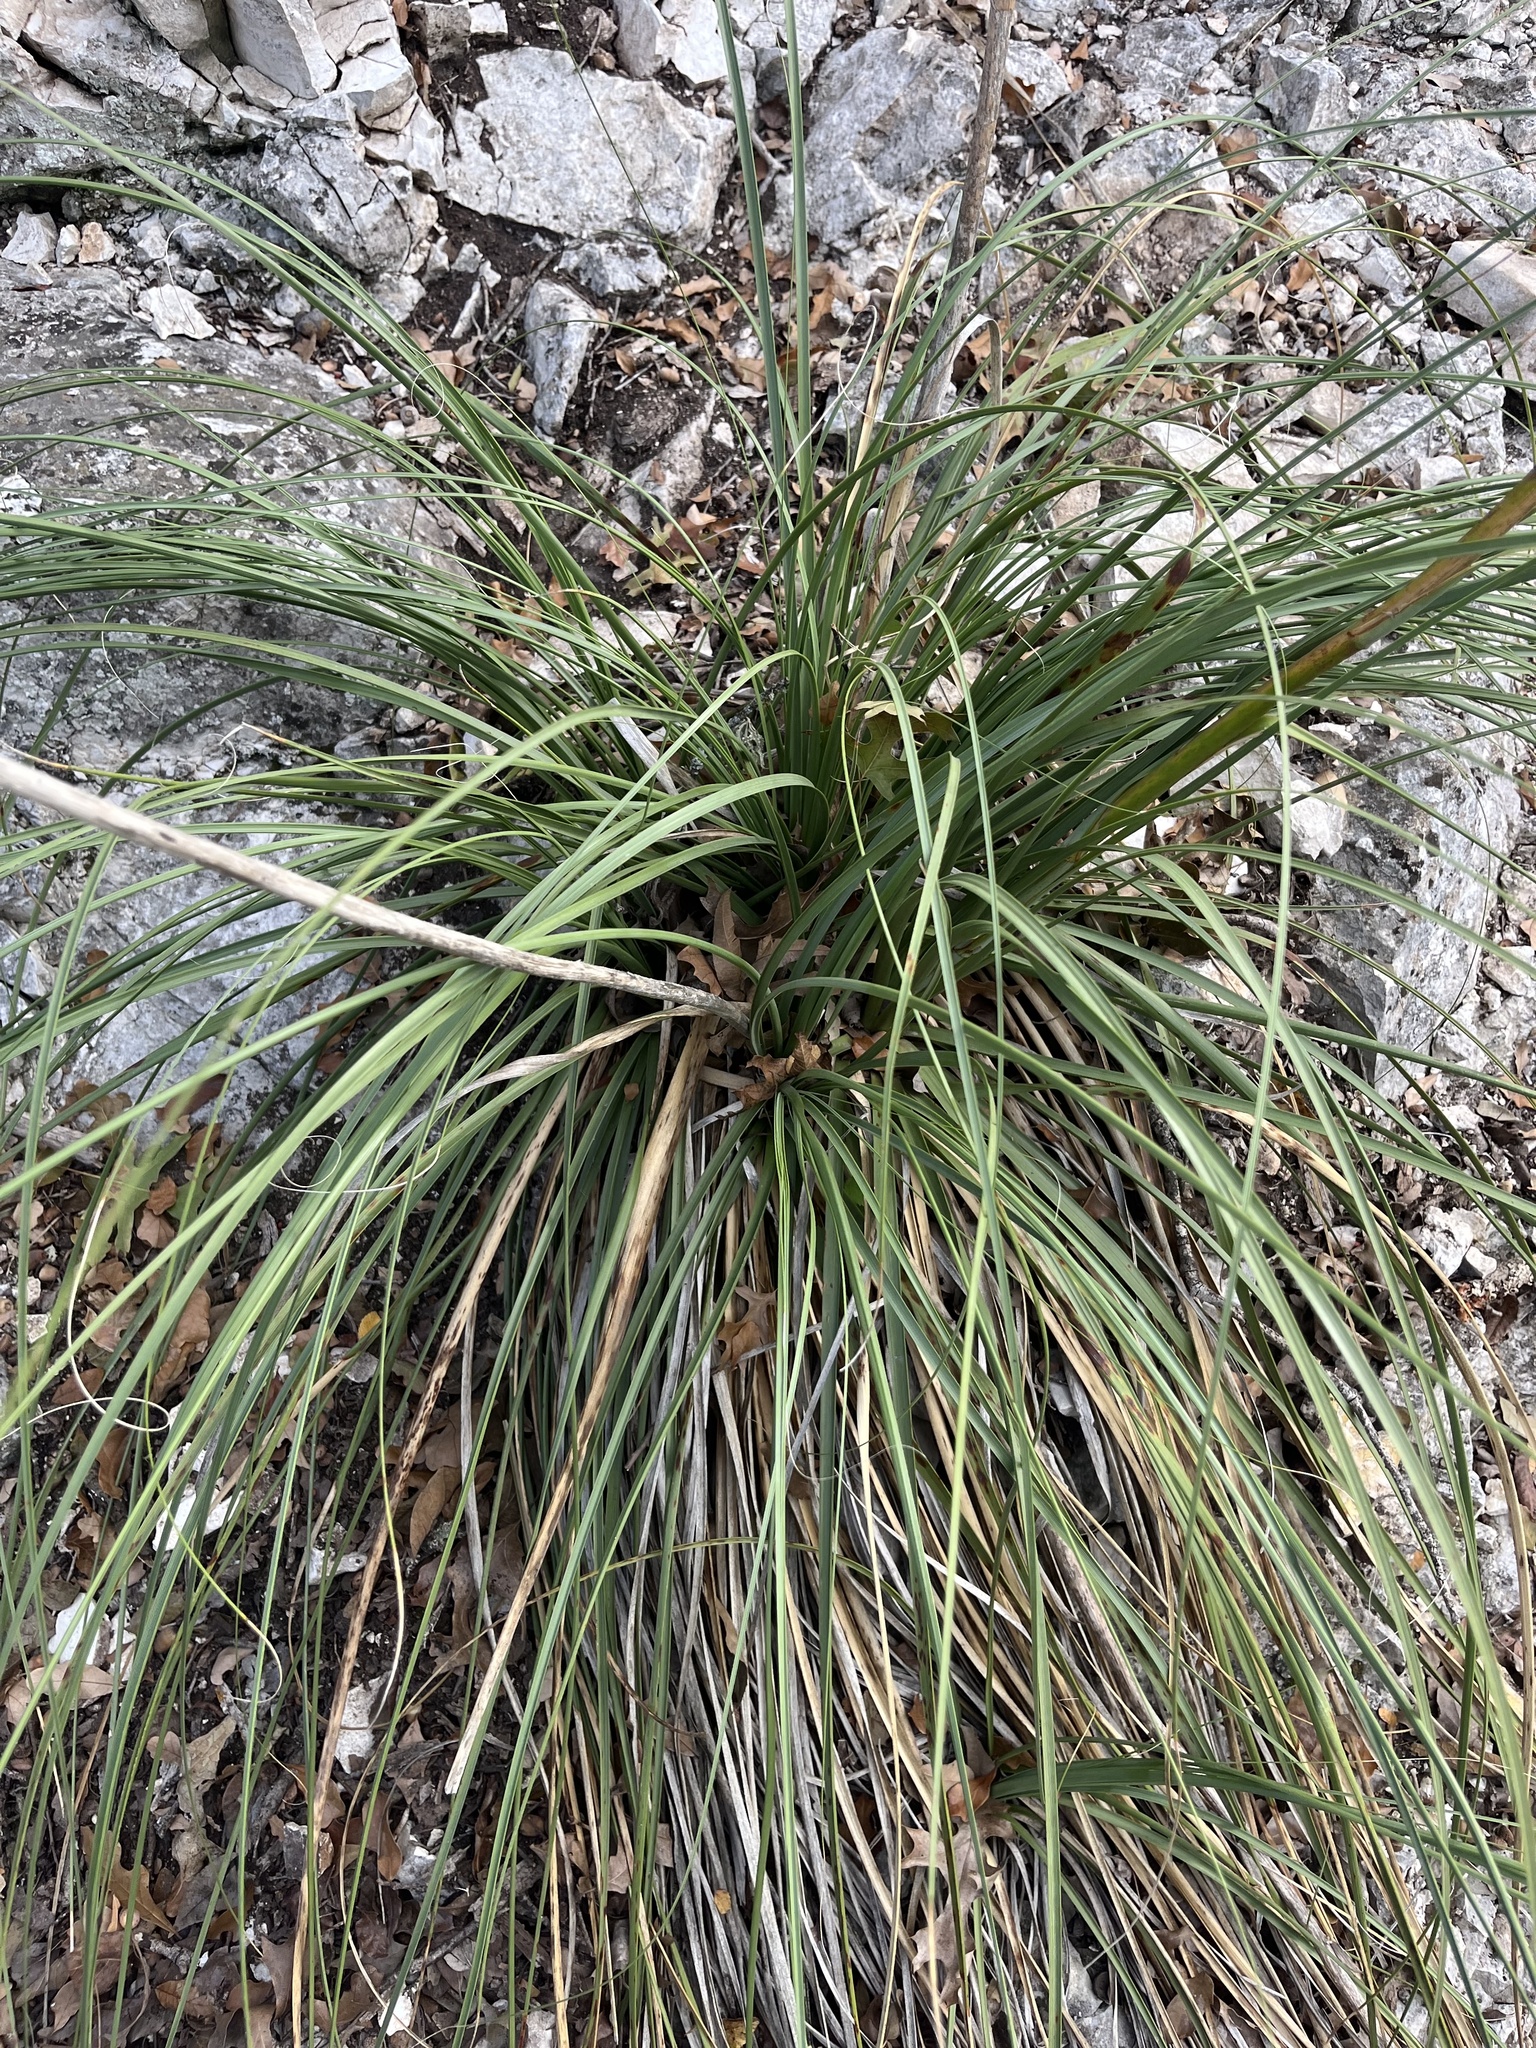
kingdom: Plantae
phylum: Tracheophyta
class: Liliopsida
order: Asparagales
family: Asparagaceae
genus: Nolina
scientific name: Nolina lindheimeriana
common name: Lindheimer's bear-grass
